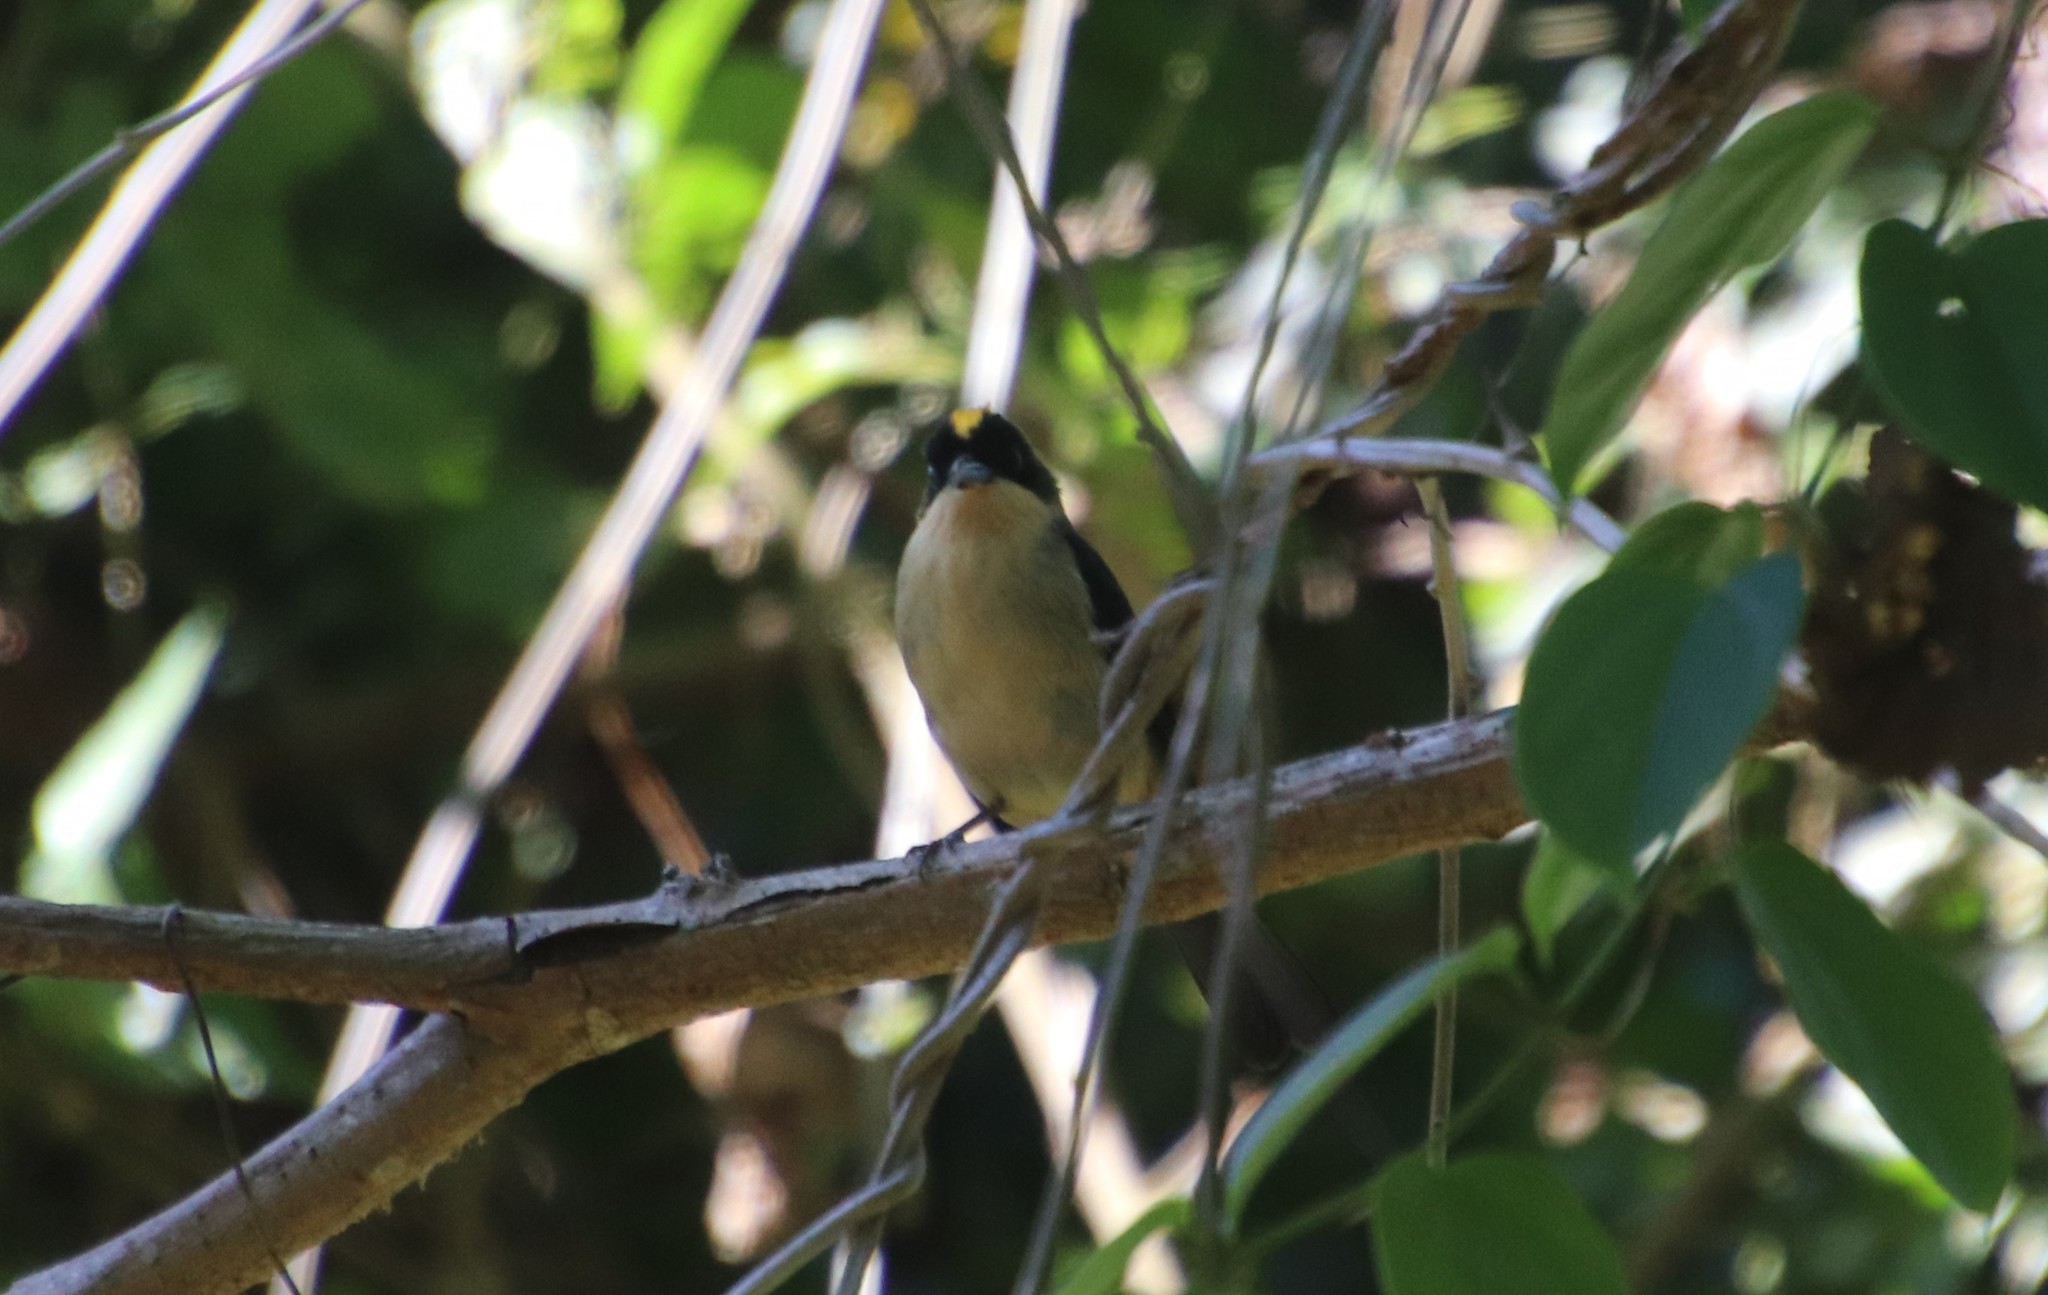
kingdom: Animalia
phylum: Chordata
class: Aves
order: Passeriformes
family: Thraupidae
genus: Trichothraupis
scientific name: Trichothraupis melanops
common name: Black-goggled tanager
